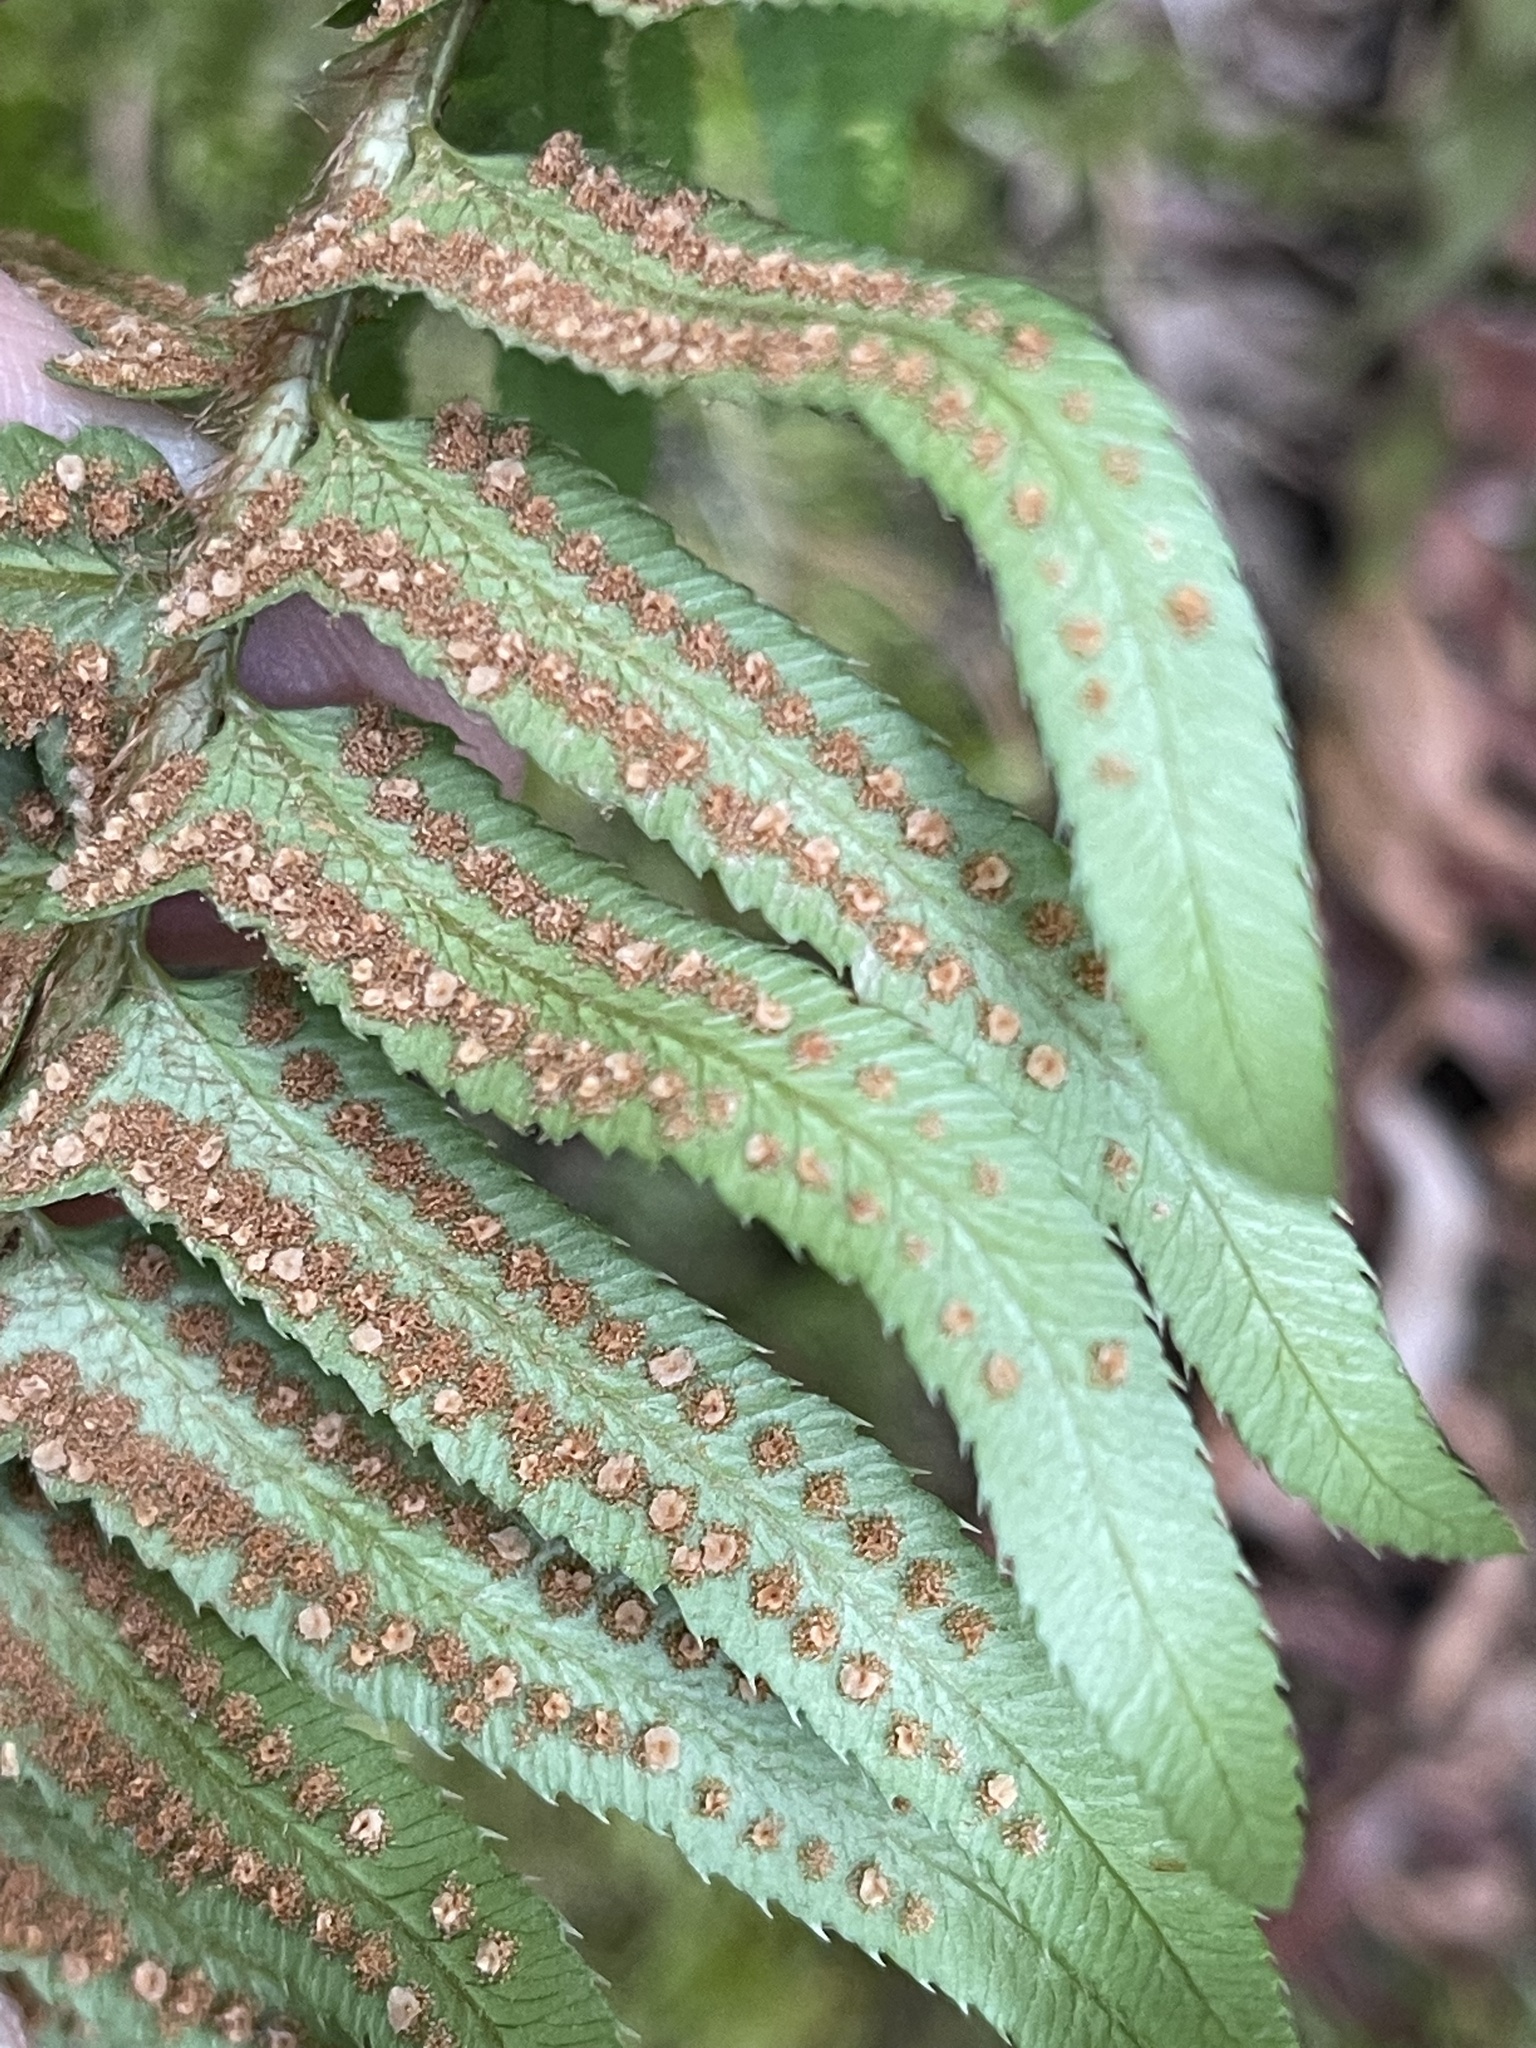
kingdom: Plantae
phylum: Tracheophyta
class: Polypodiopsida
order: Polypodiales
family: Dryopteridaceae
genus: Polystichum
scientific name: Polystichum munitum
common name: Western sword-fern
